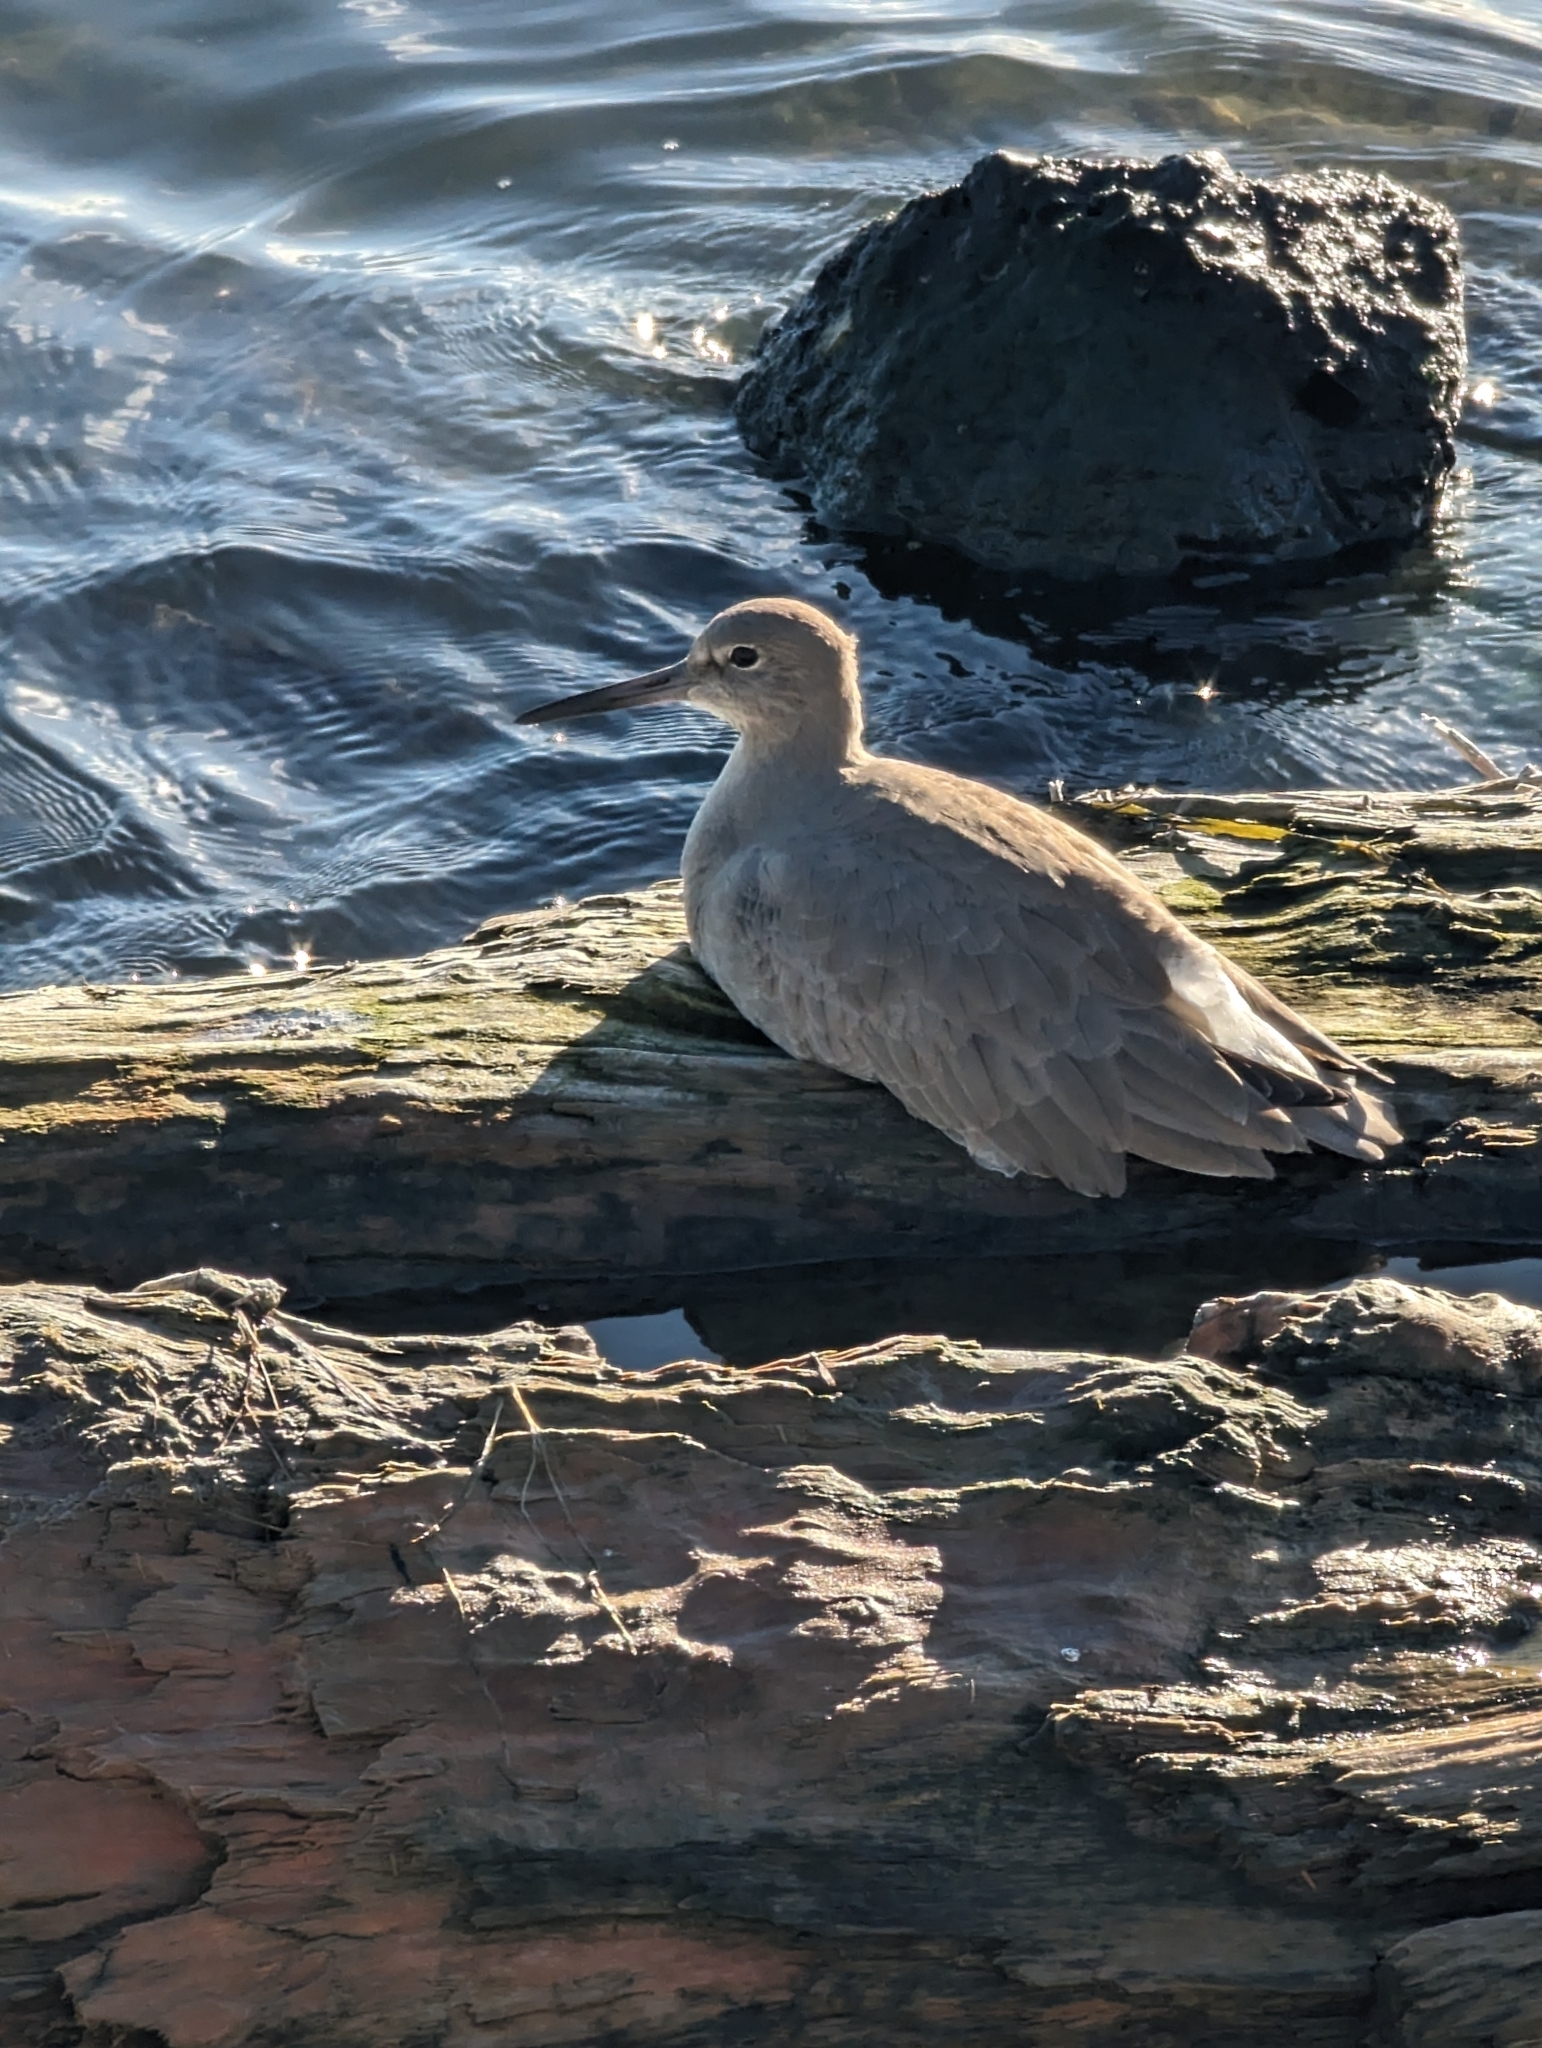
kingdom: Animalia
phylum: Chordata
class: Aves
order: Charadriiformes
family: Scolopacidae
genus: Tringa
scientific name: Tringa semipalmata
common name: Willet
